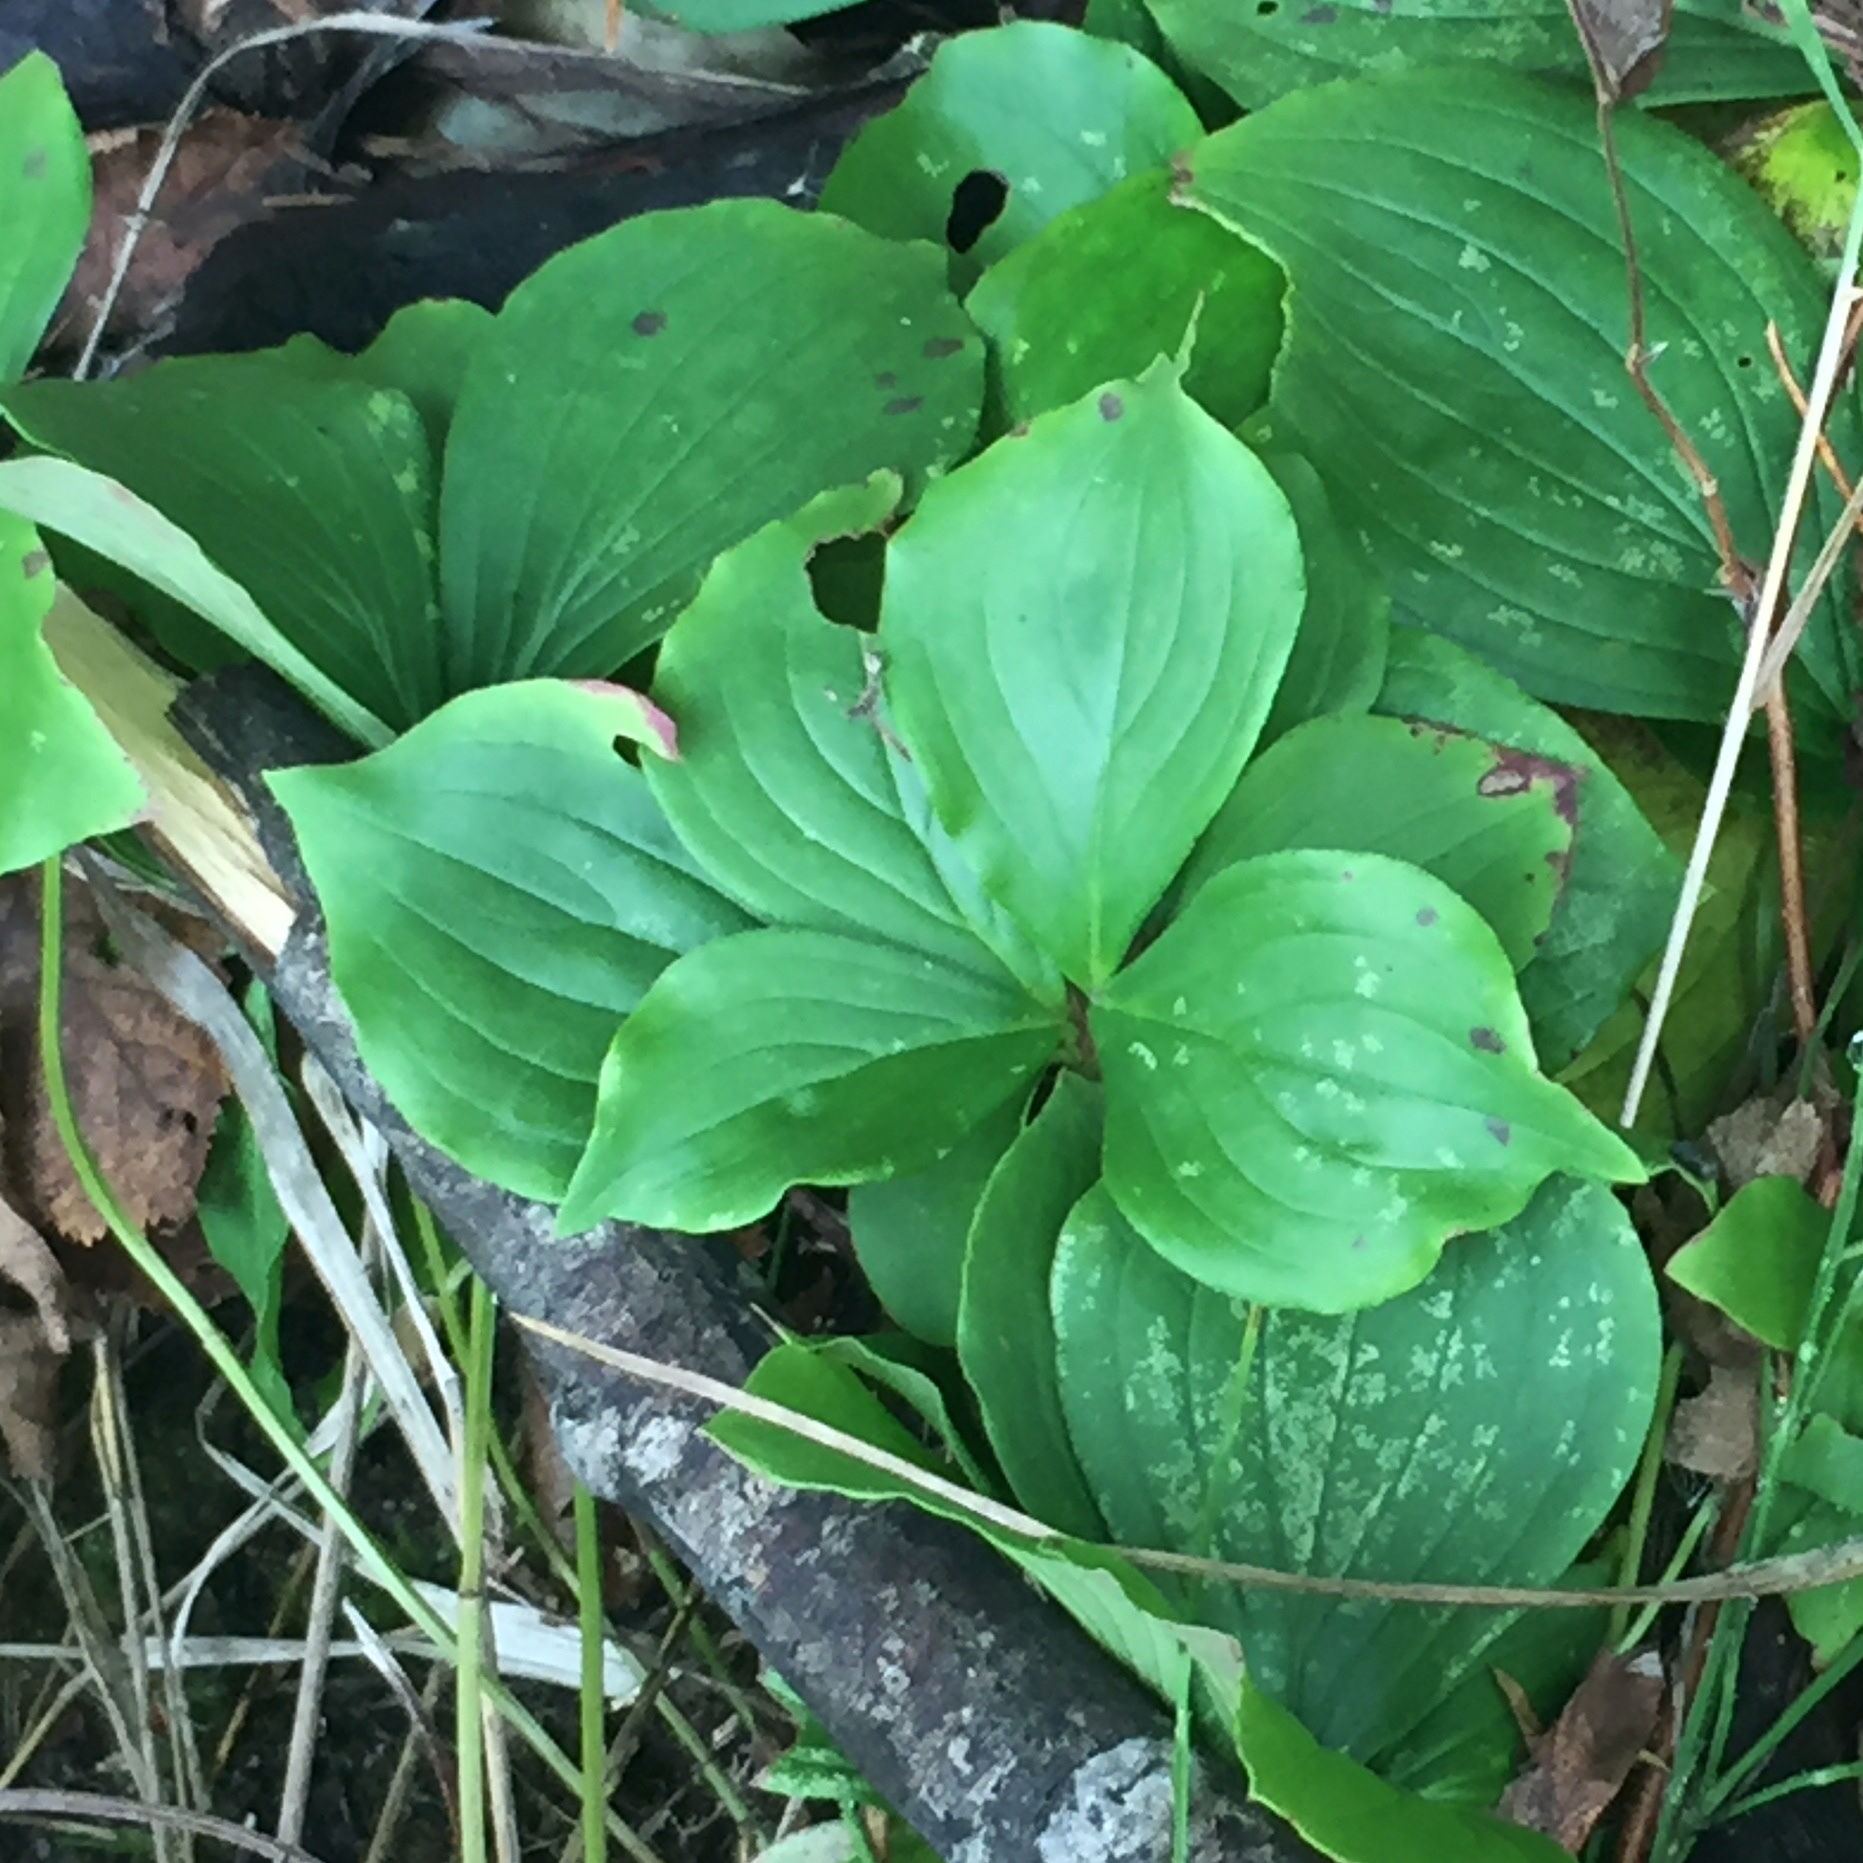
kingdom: Plantae
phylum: Tracheophyta
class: Magnoliopsida
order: Cornales
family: Cornaceae
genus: Cornus
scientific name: Cornus canadensis
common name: Creeping dogwood
